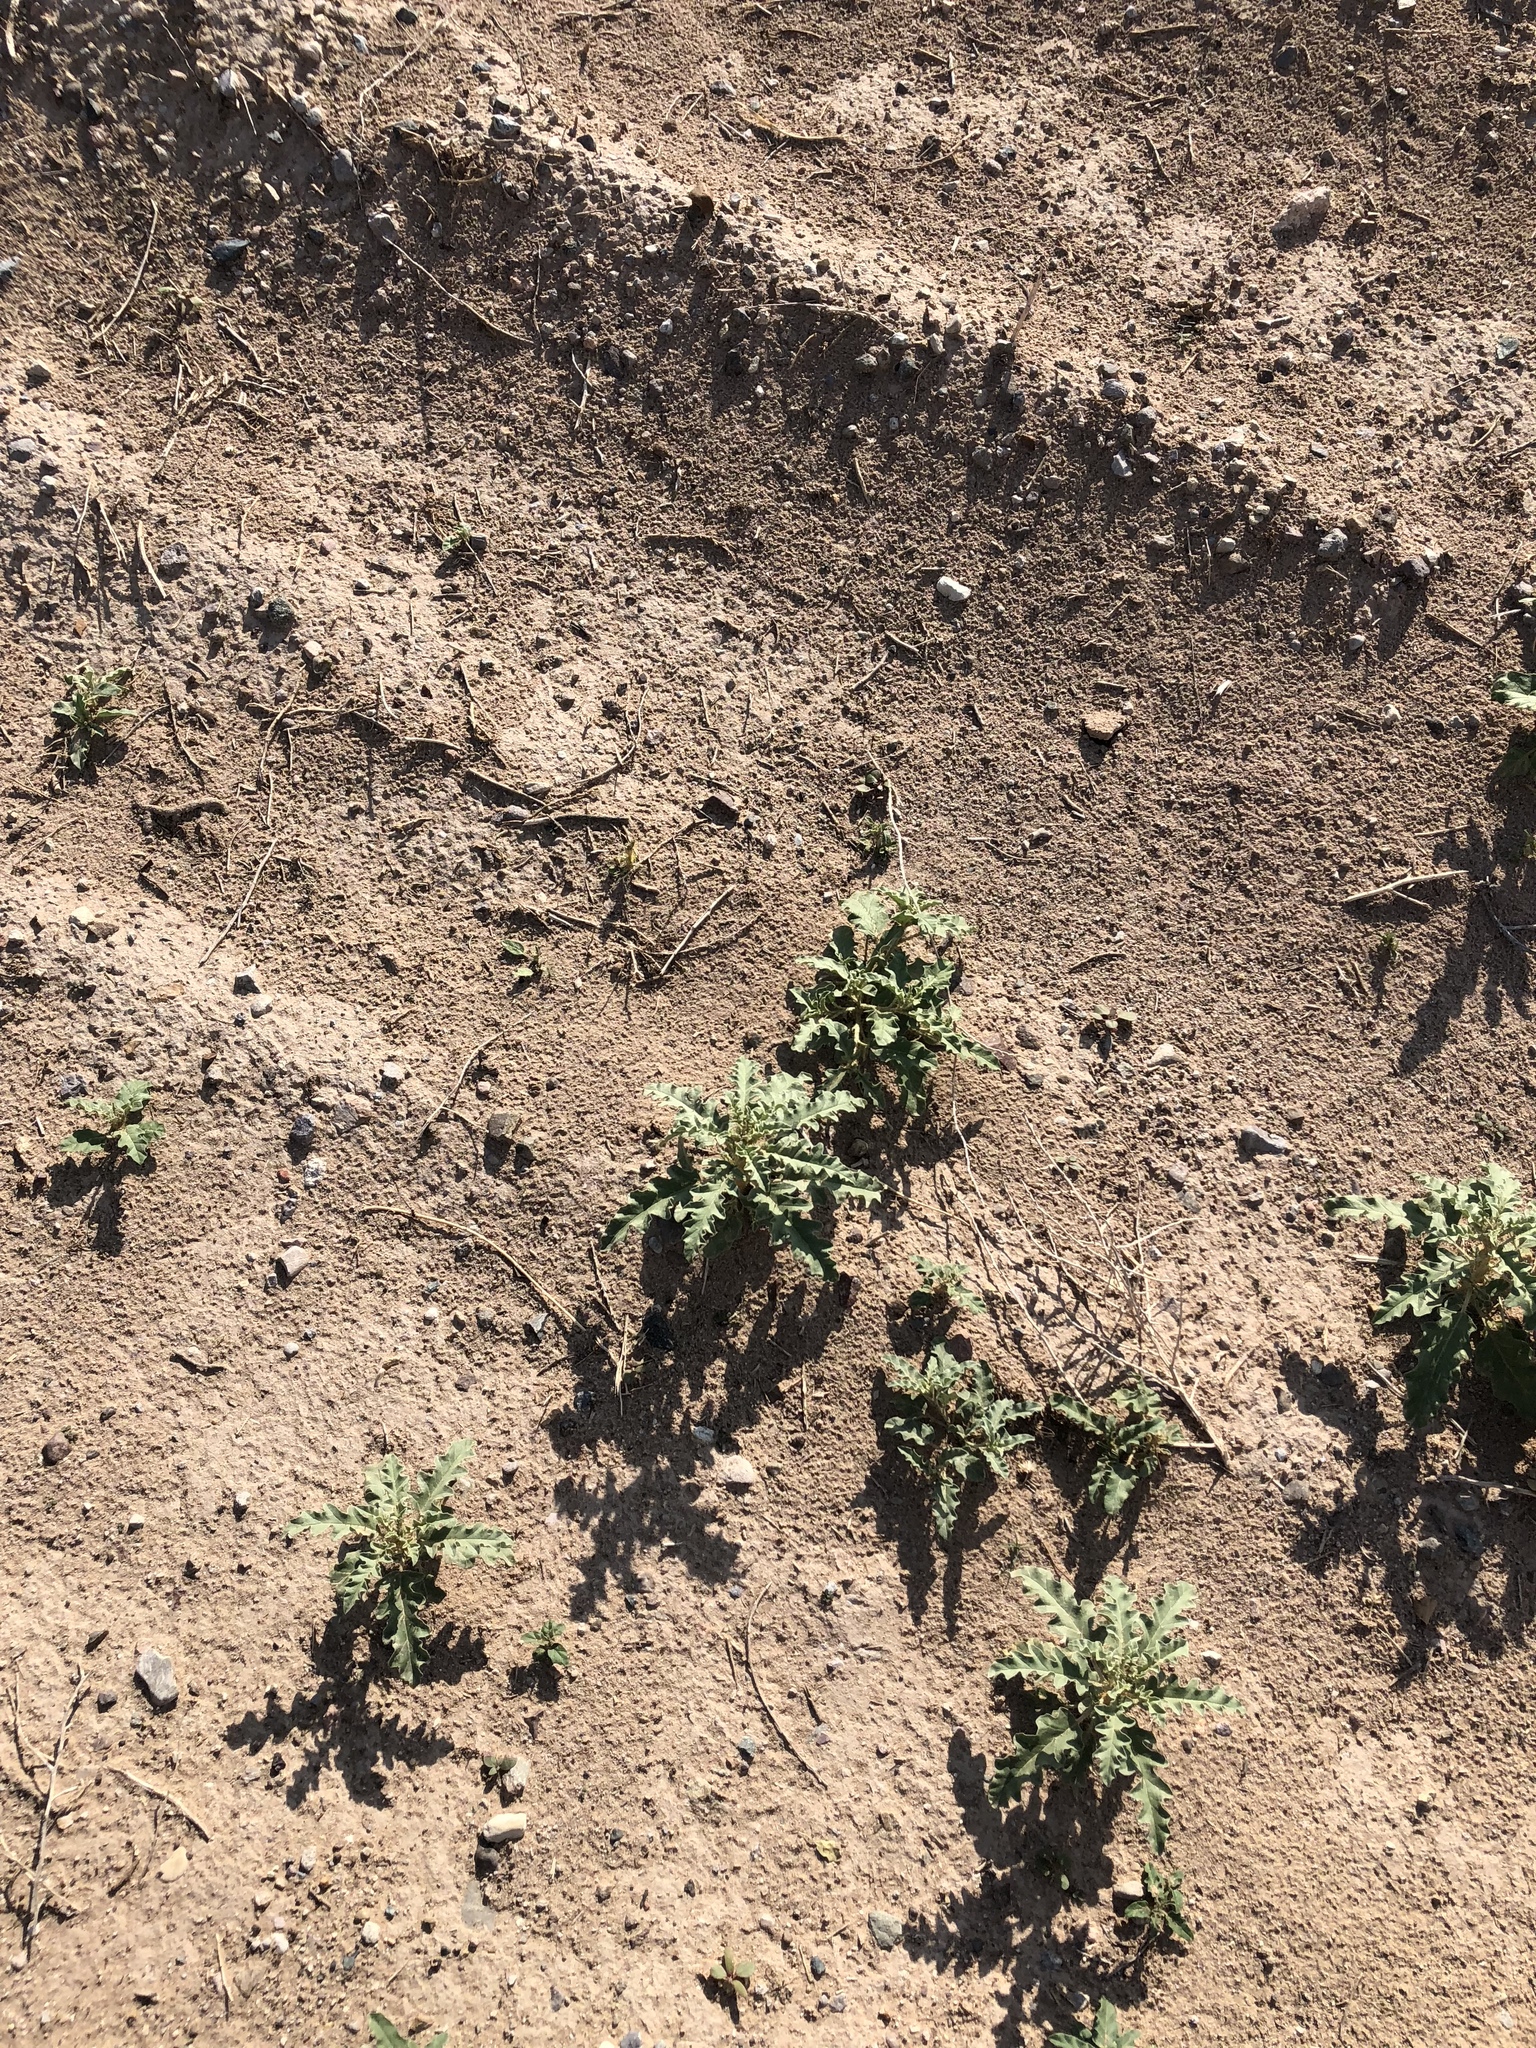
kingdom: Plantae
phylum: Tracheophyta
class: Magnoliopsida
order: Solanales
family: Solanaceae
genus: Solanum
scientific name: Solanum elaeagnifolium
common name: Silverleaf nightshade
